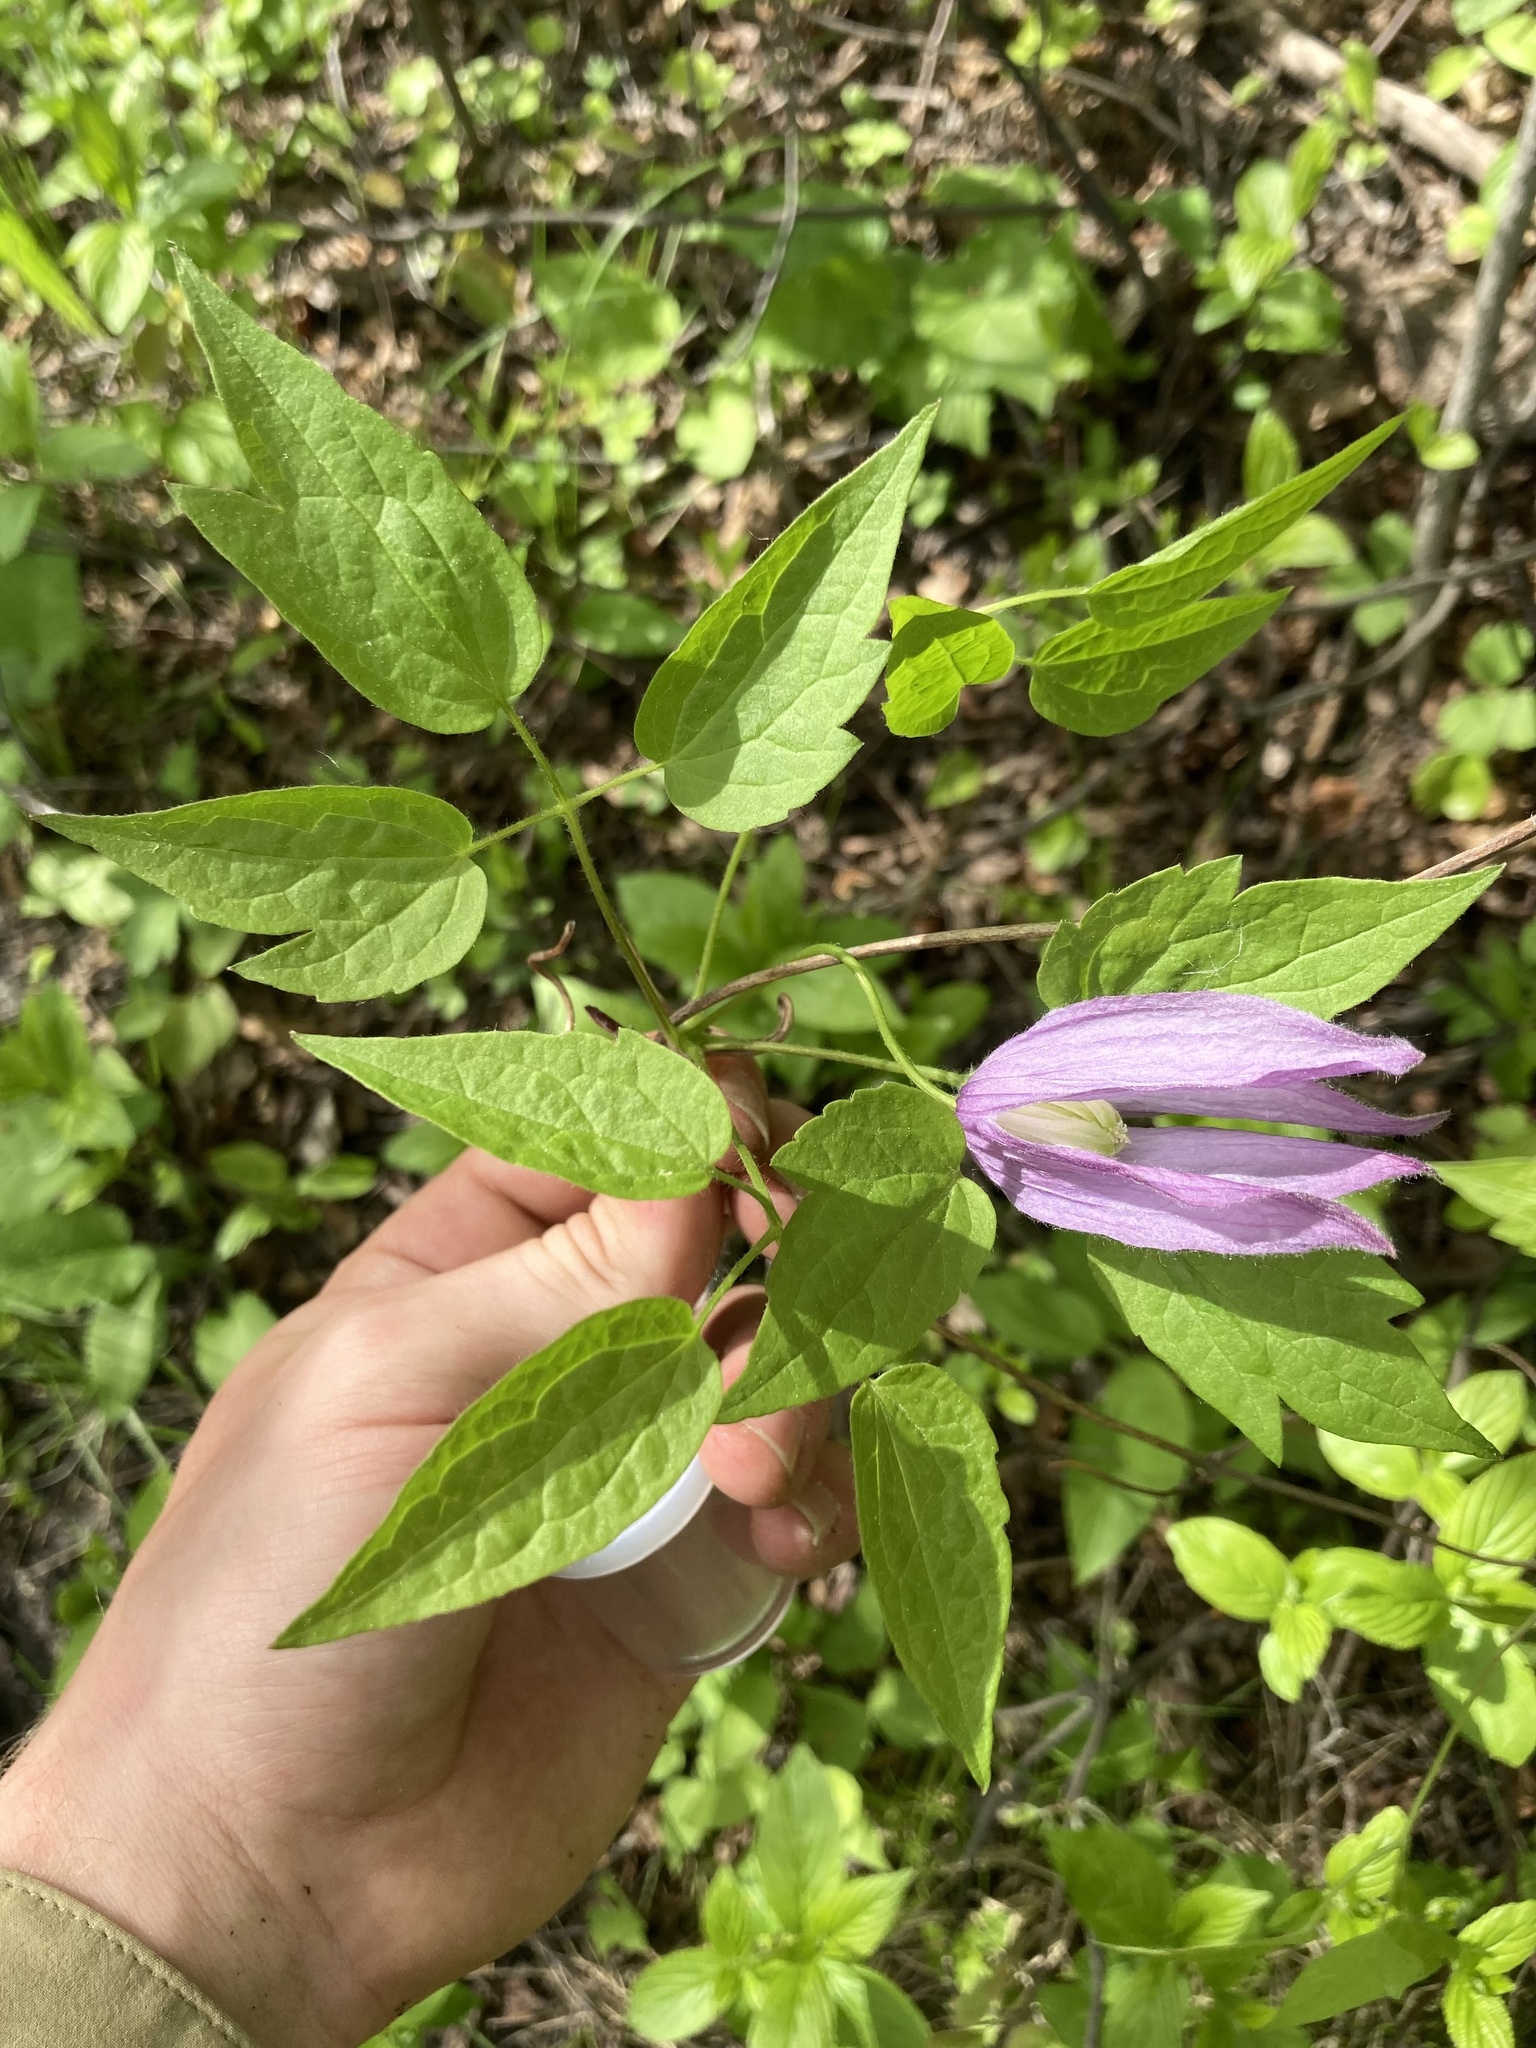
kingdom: Plantae
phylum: Tracheophyta
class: Magnoliopsida
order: Ranunculales
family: Ranunculaceae
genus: Clematis
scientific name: Clematis occidentalis
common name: Purple clematis
